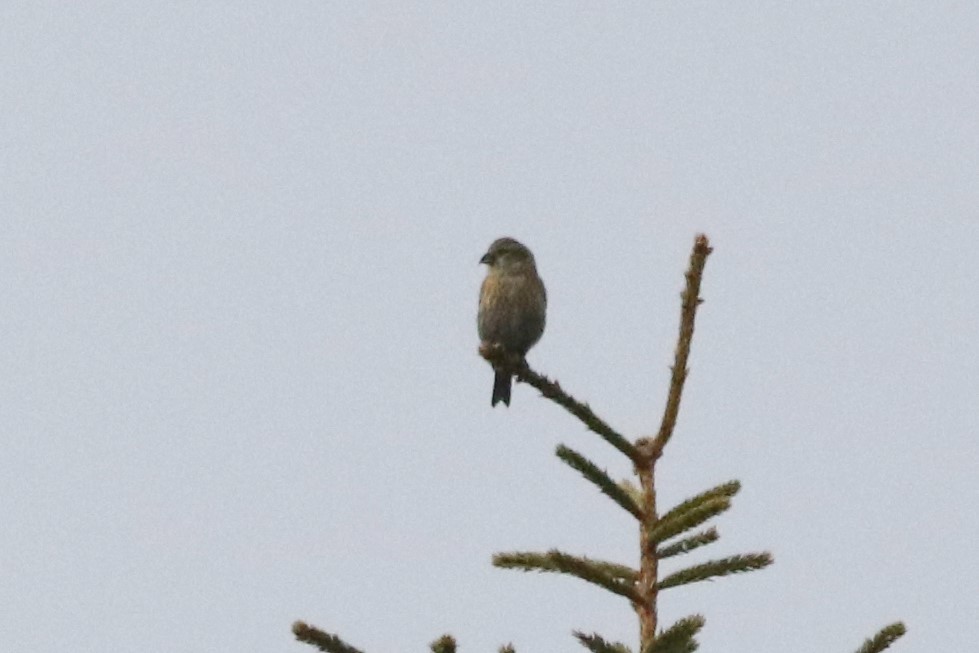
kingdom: Animalia
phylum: Chordata
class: Aves
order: Passeriformes
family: Fringillidae
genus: Loxia
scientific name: Loxia leucoptera
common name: Two-barred crossbill
